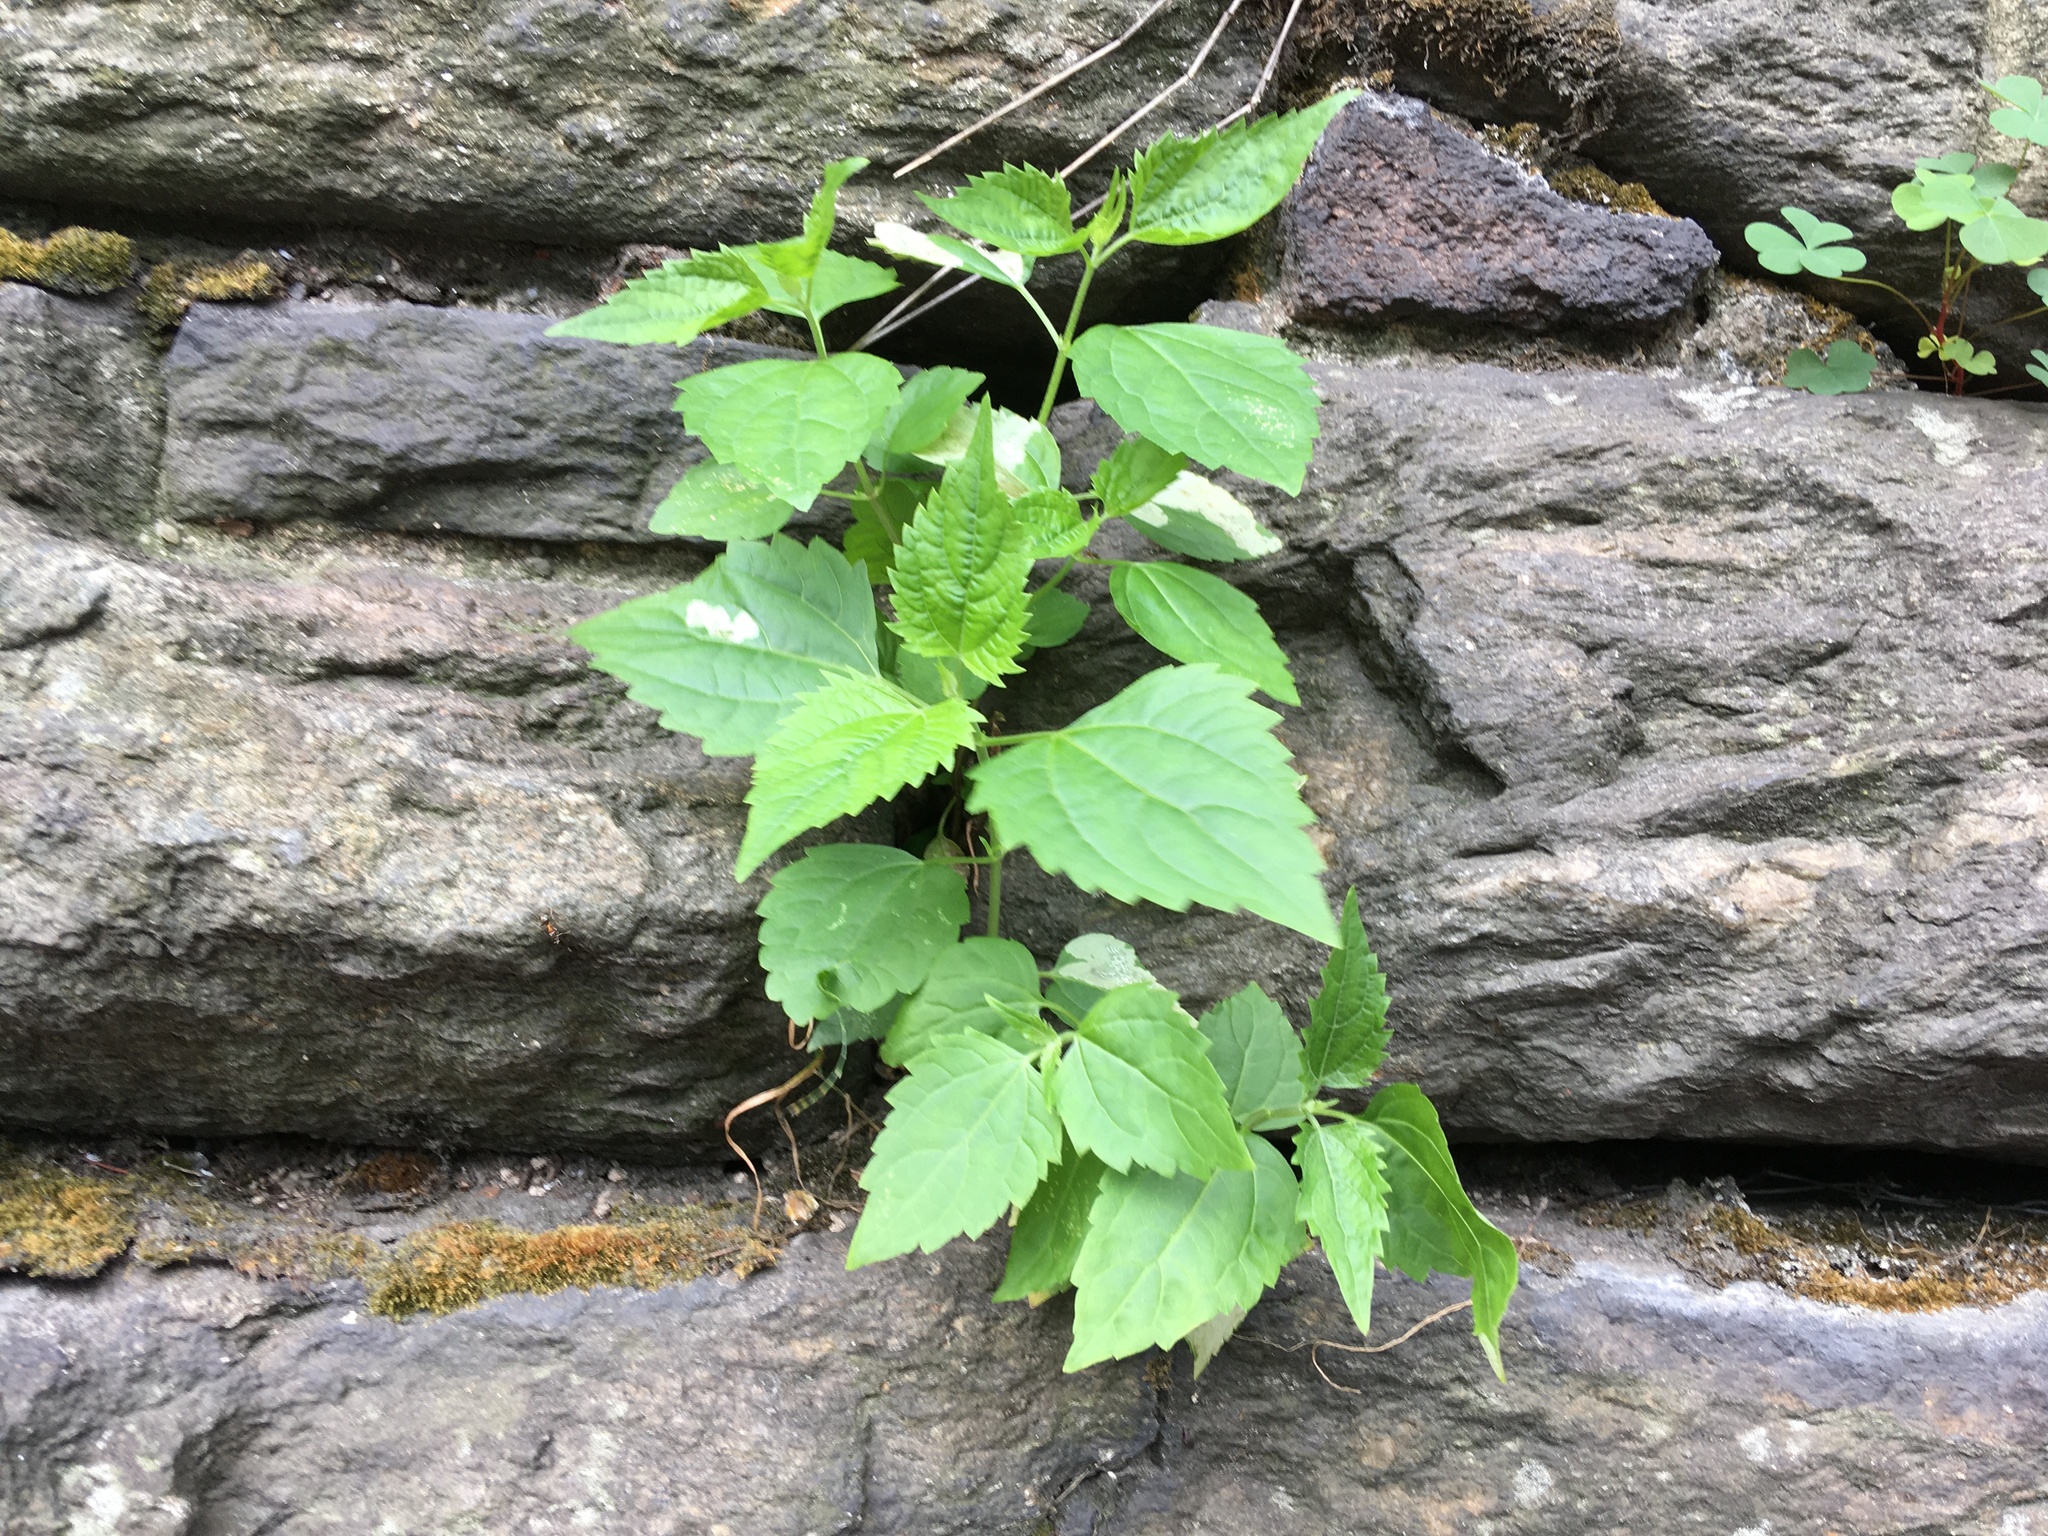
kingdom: Plantae
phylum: Tracheophyta
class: Magnoliopsida
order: Asterales
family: Asteraceae
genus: Ageratina
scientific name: Ageratina altissima
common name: White snakeroot
